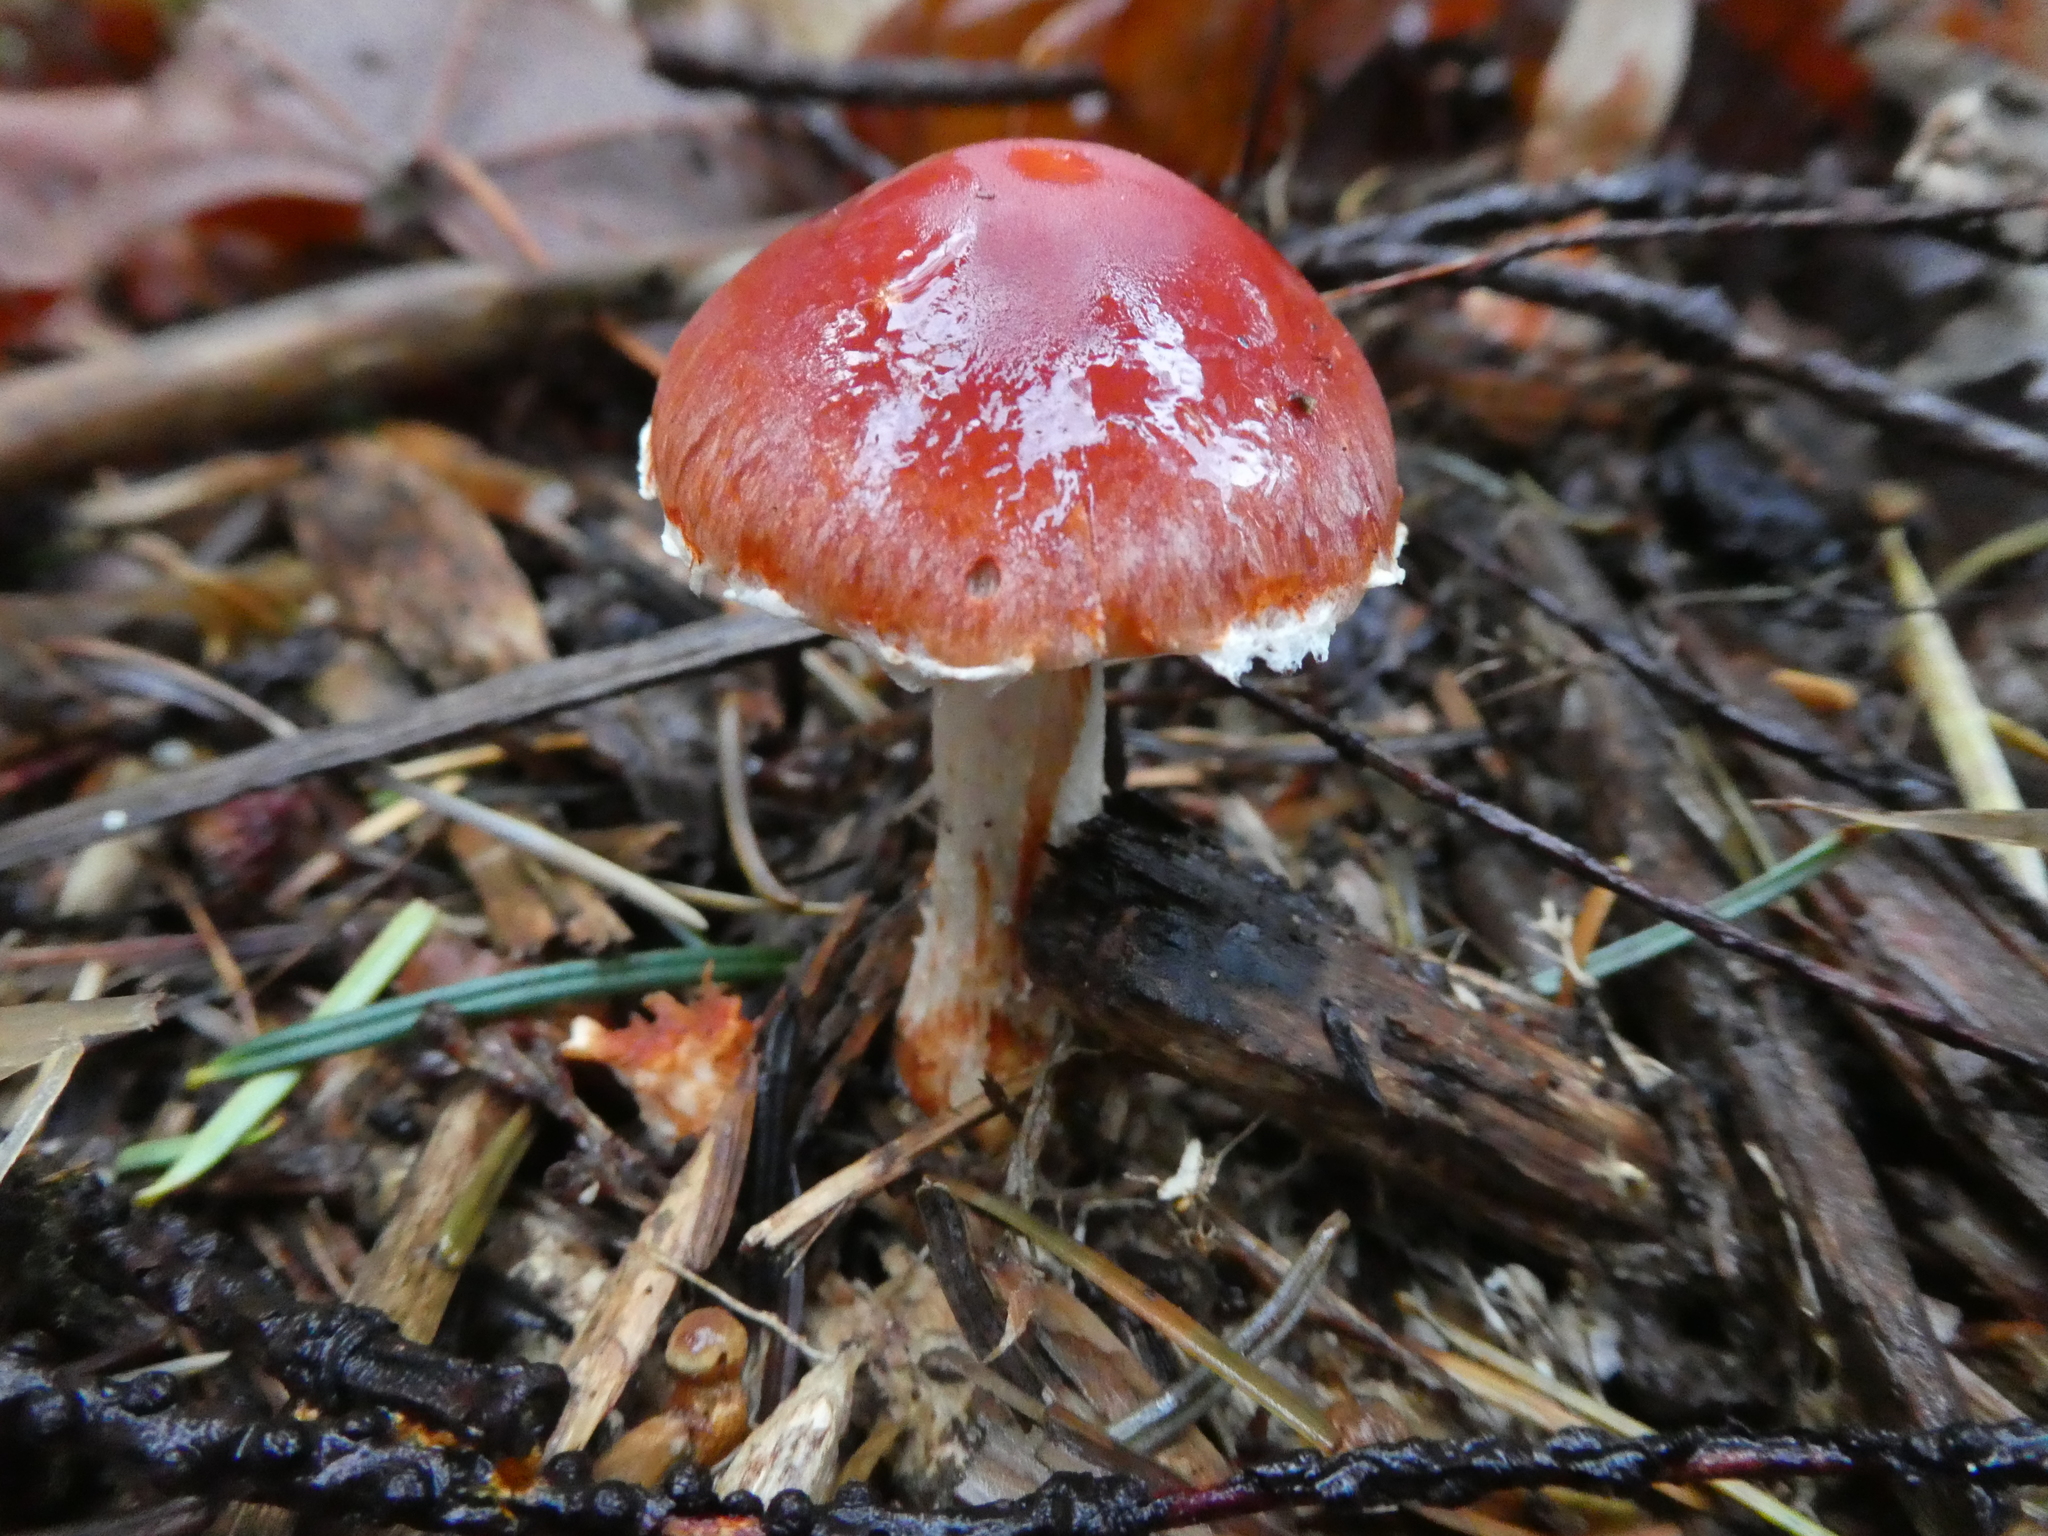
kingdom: Fungi
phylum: Basidiomycota
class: Agaricomycetes
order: Agaricales
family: Strophariaceae
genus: Leratiomyces
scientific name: Leratiomyces ceres
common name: Redlead roundhead
